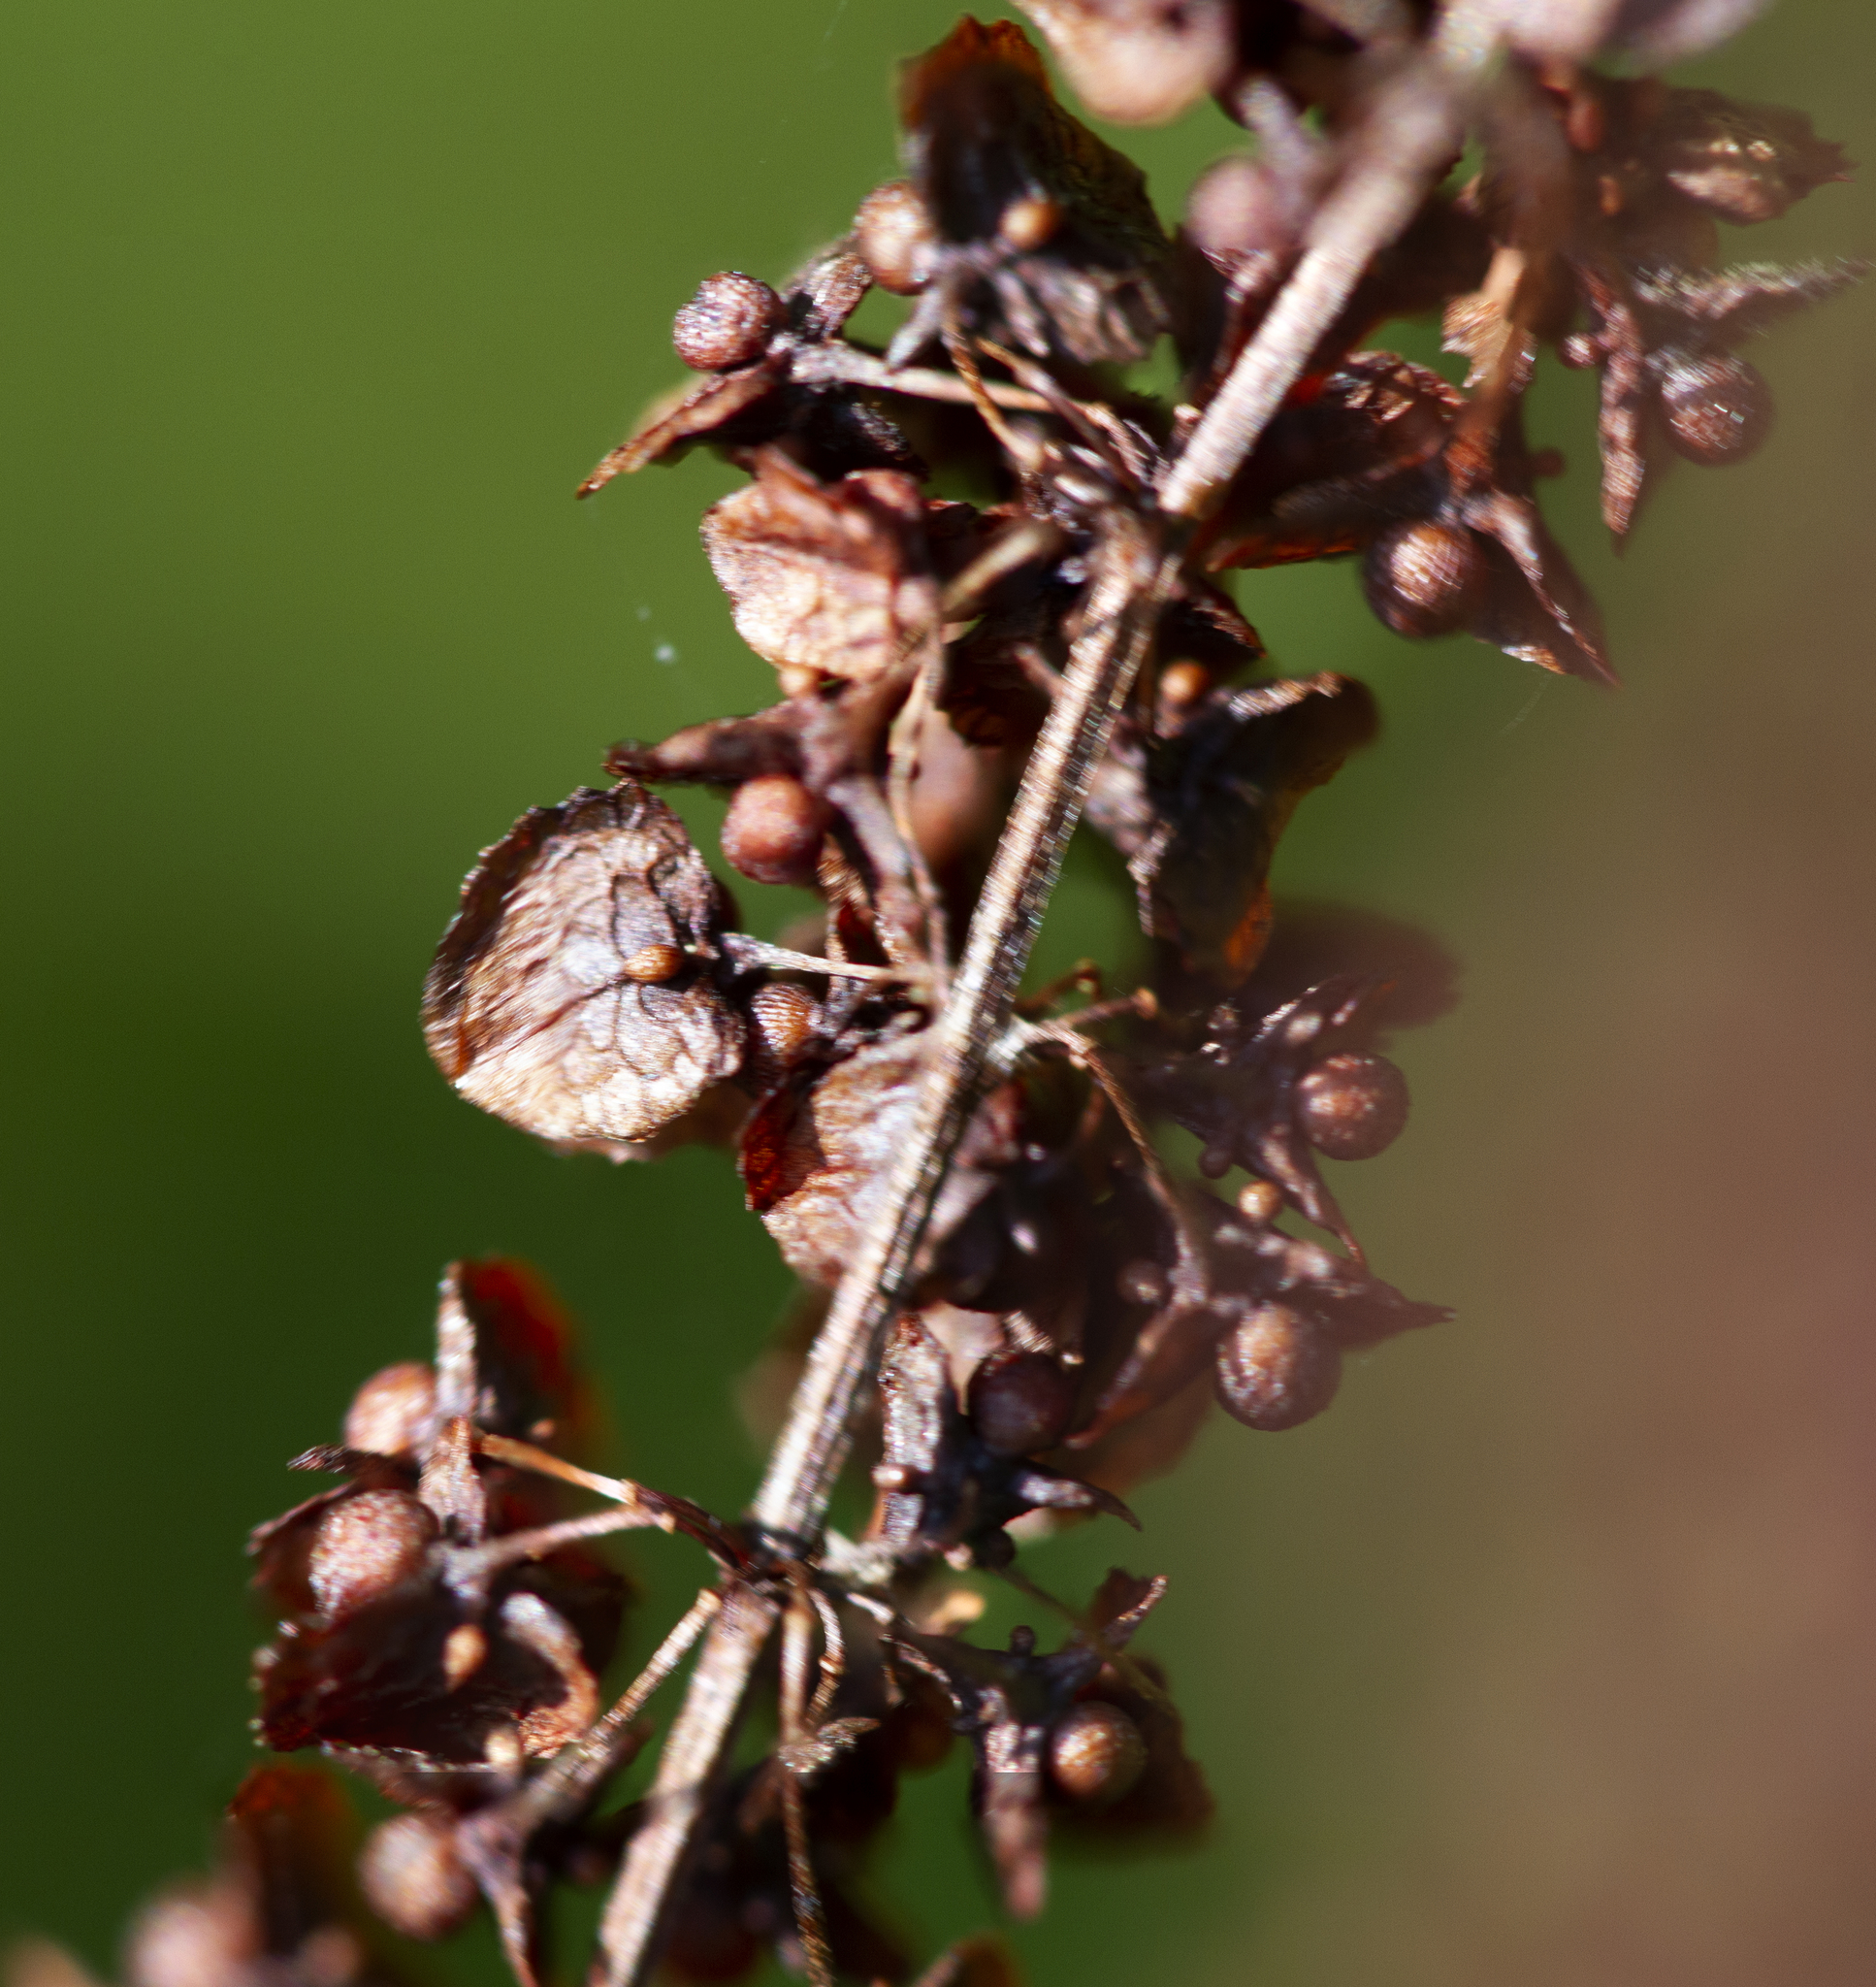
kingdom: Plantae
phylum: Tracheophyta
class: Magnoliopsida
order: Caryophyllales
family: Polygonaceae
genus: Rumex
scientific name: Rumex crispus
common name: Curled dock
